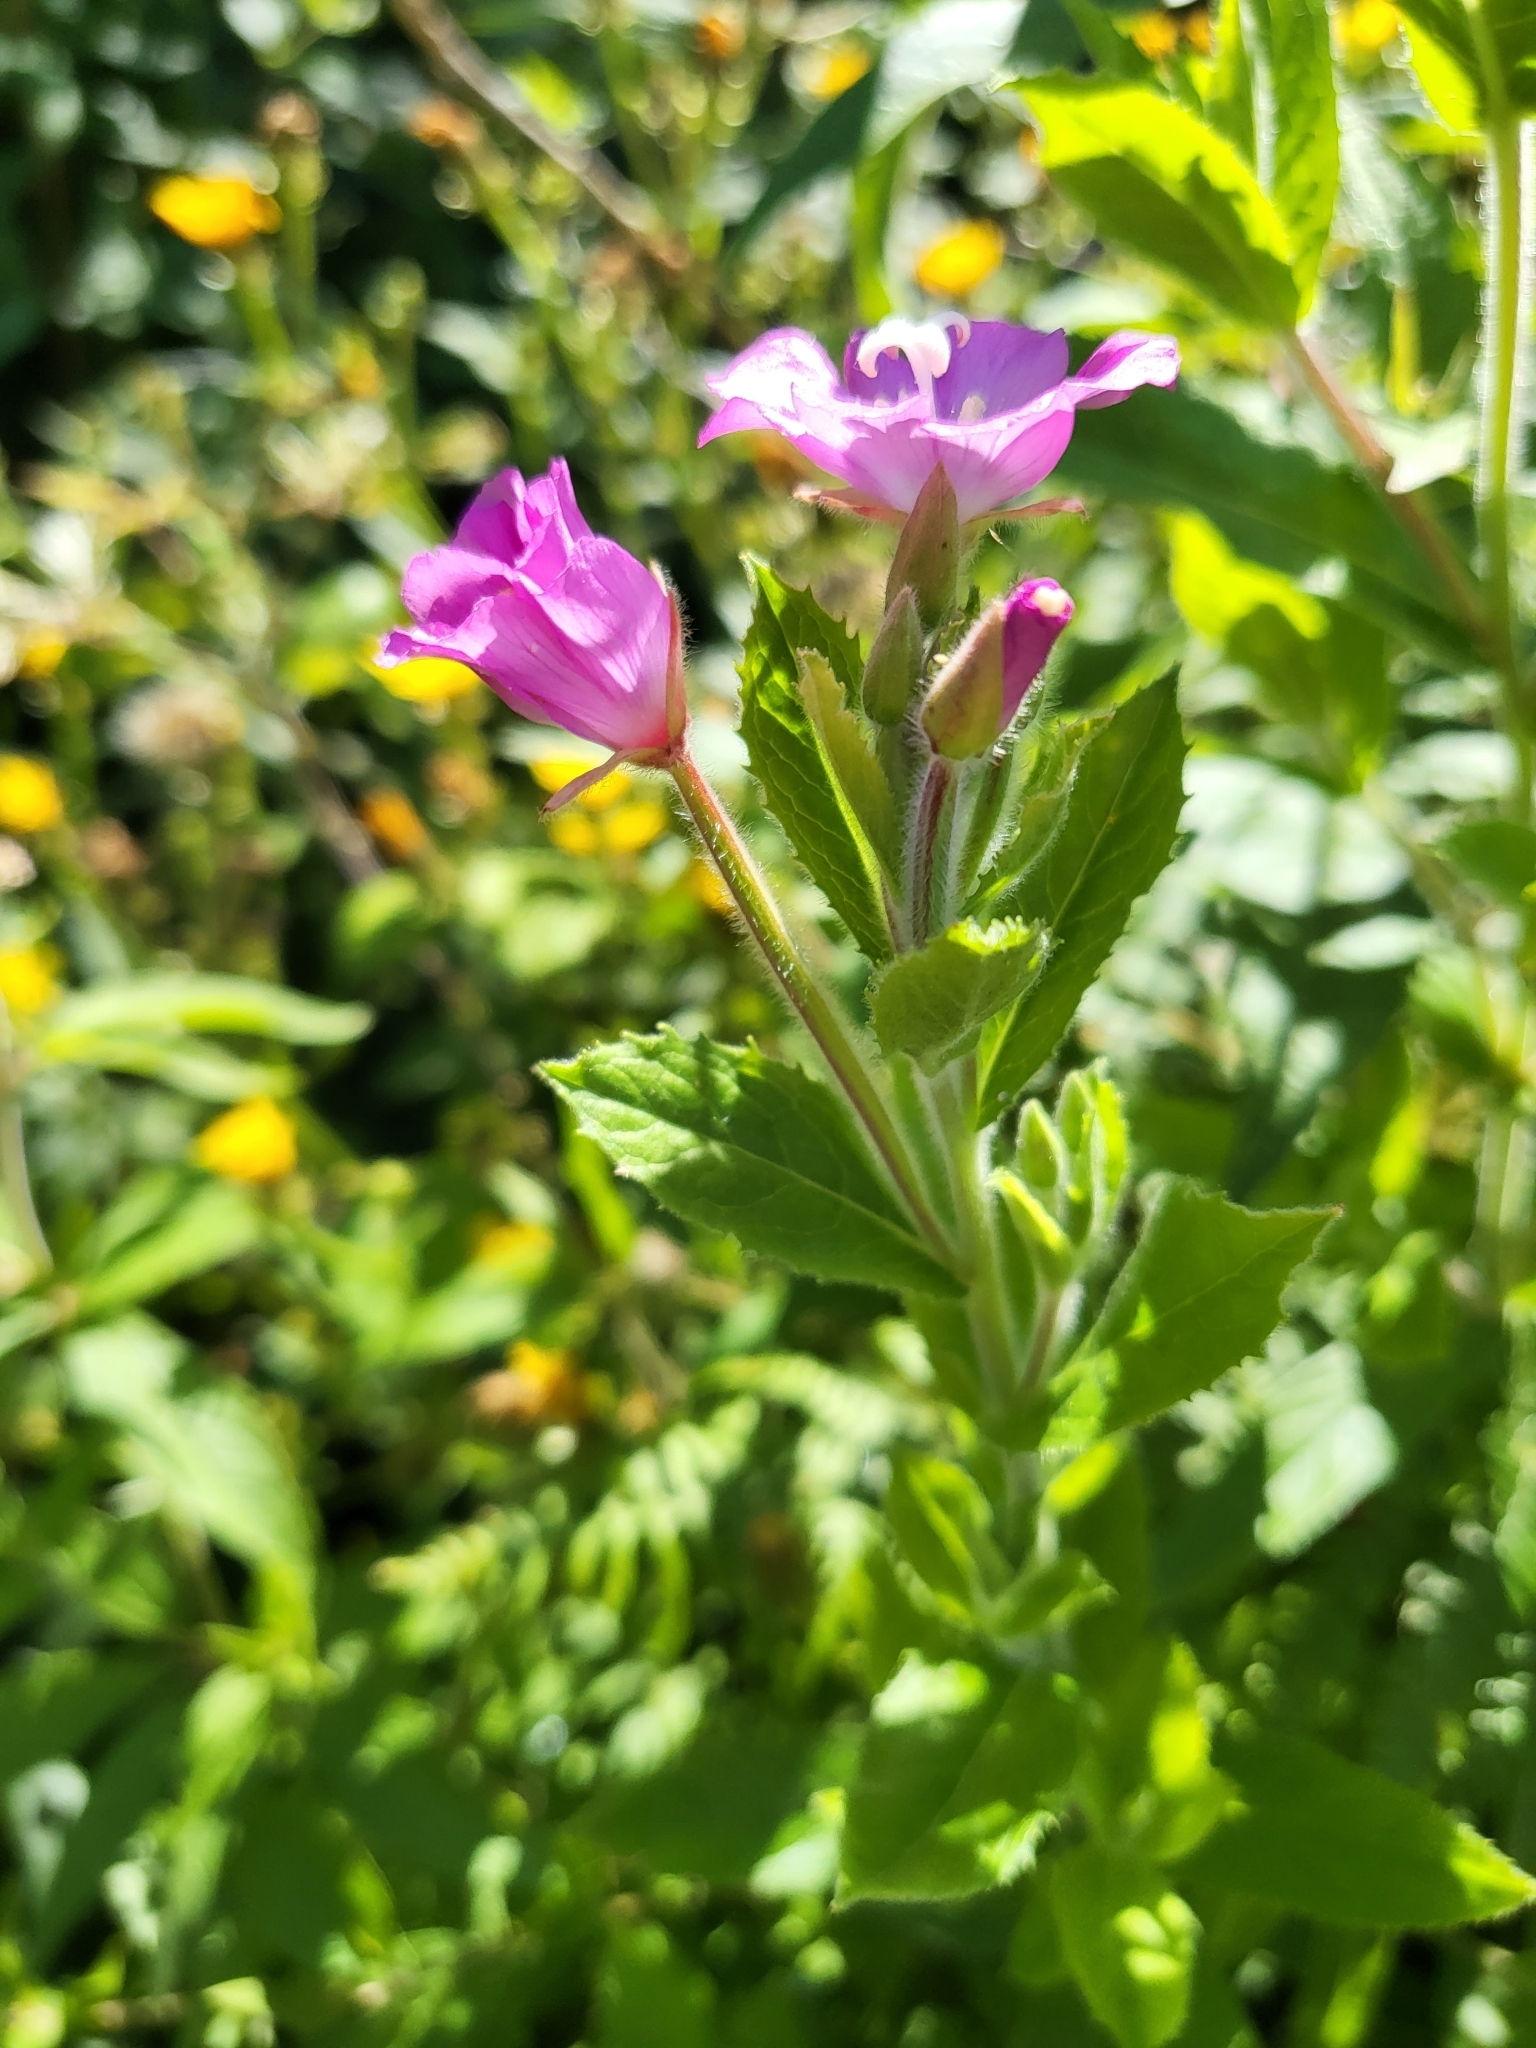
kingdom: Plantae
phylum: Tracheophyta
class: Magnoliopsida
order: Myrtales
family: Onagraceae
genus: Epilobium
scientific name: Epilobium hirsutum
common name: Great willowherb
